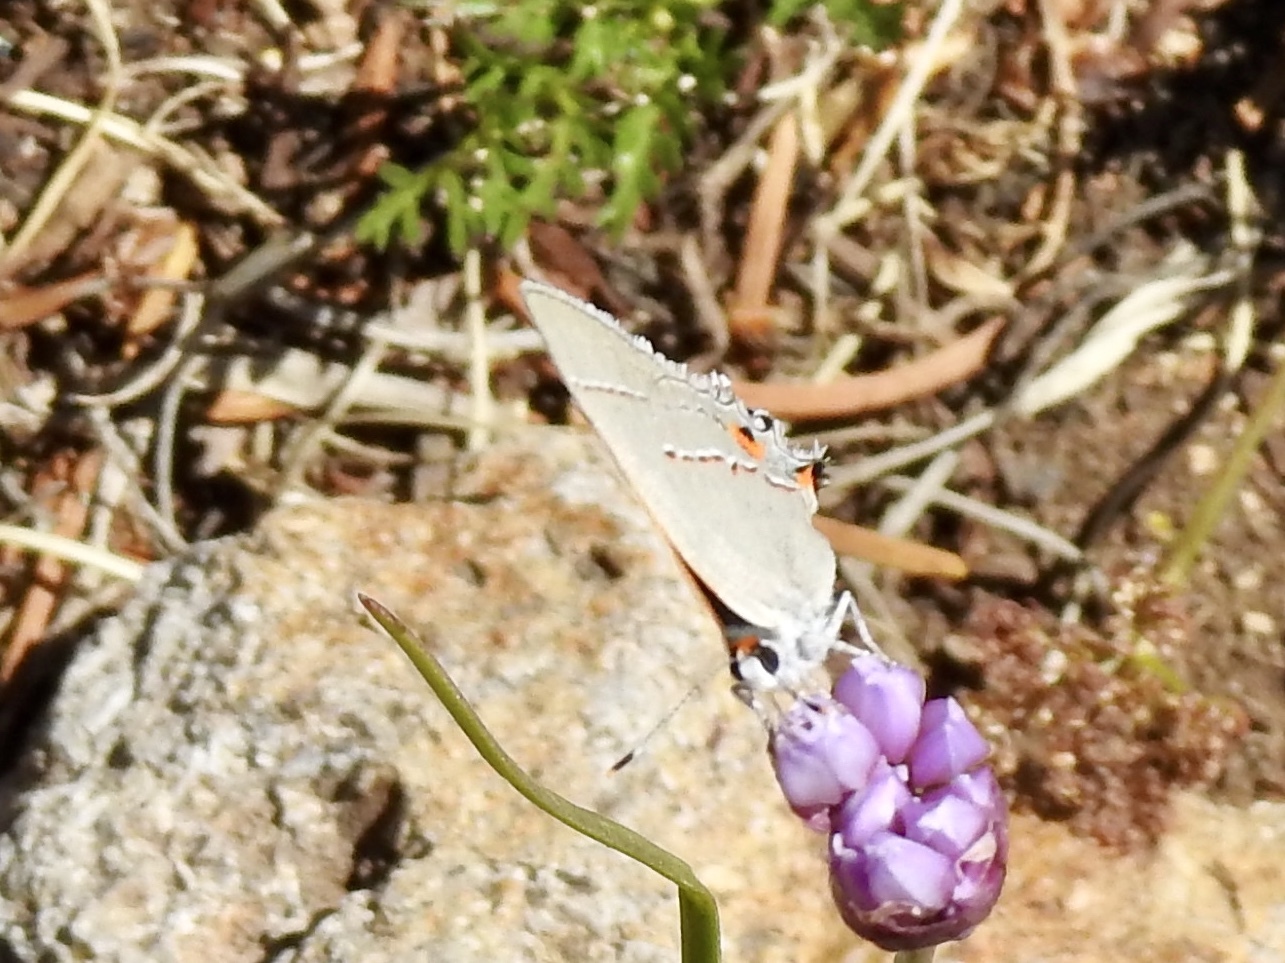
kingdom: Animalia
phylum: Arthropoda
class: Insecta
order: Lepidoptera
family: Lycaenidae
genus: Strymon
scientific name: Strymon melinus
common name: Gray hairstreak
